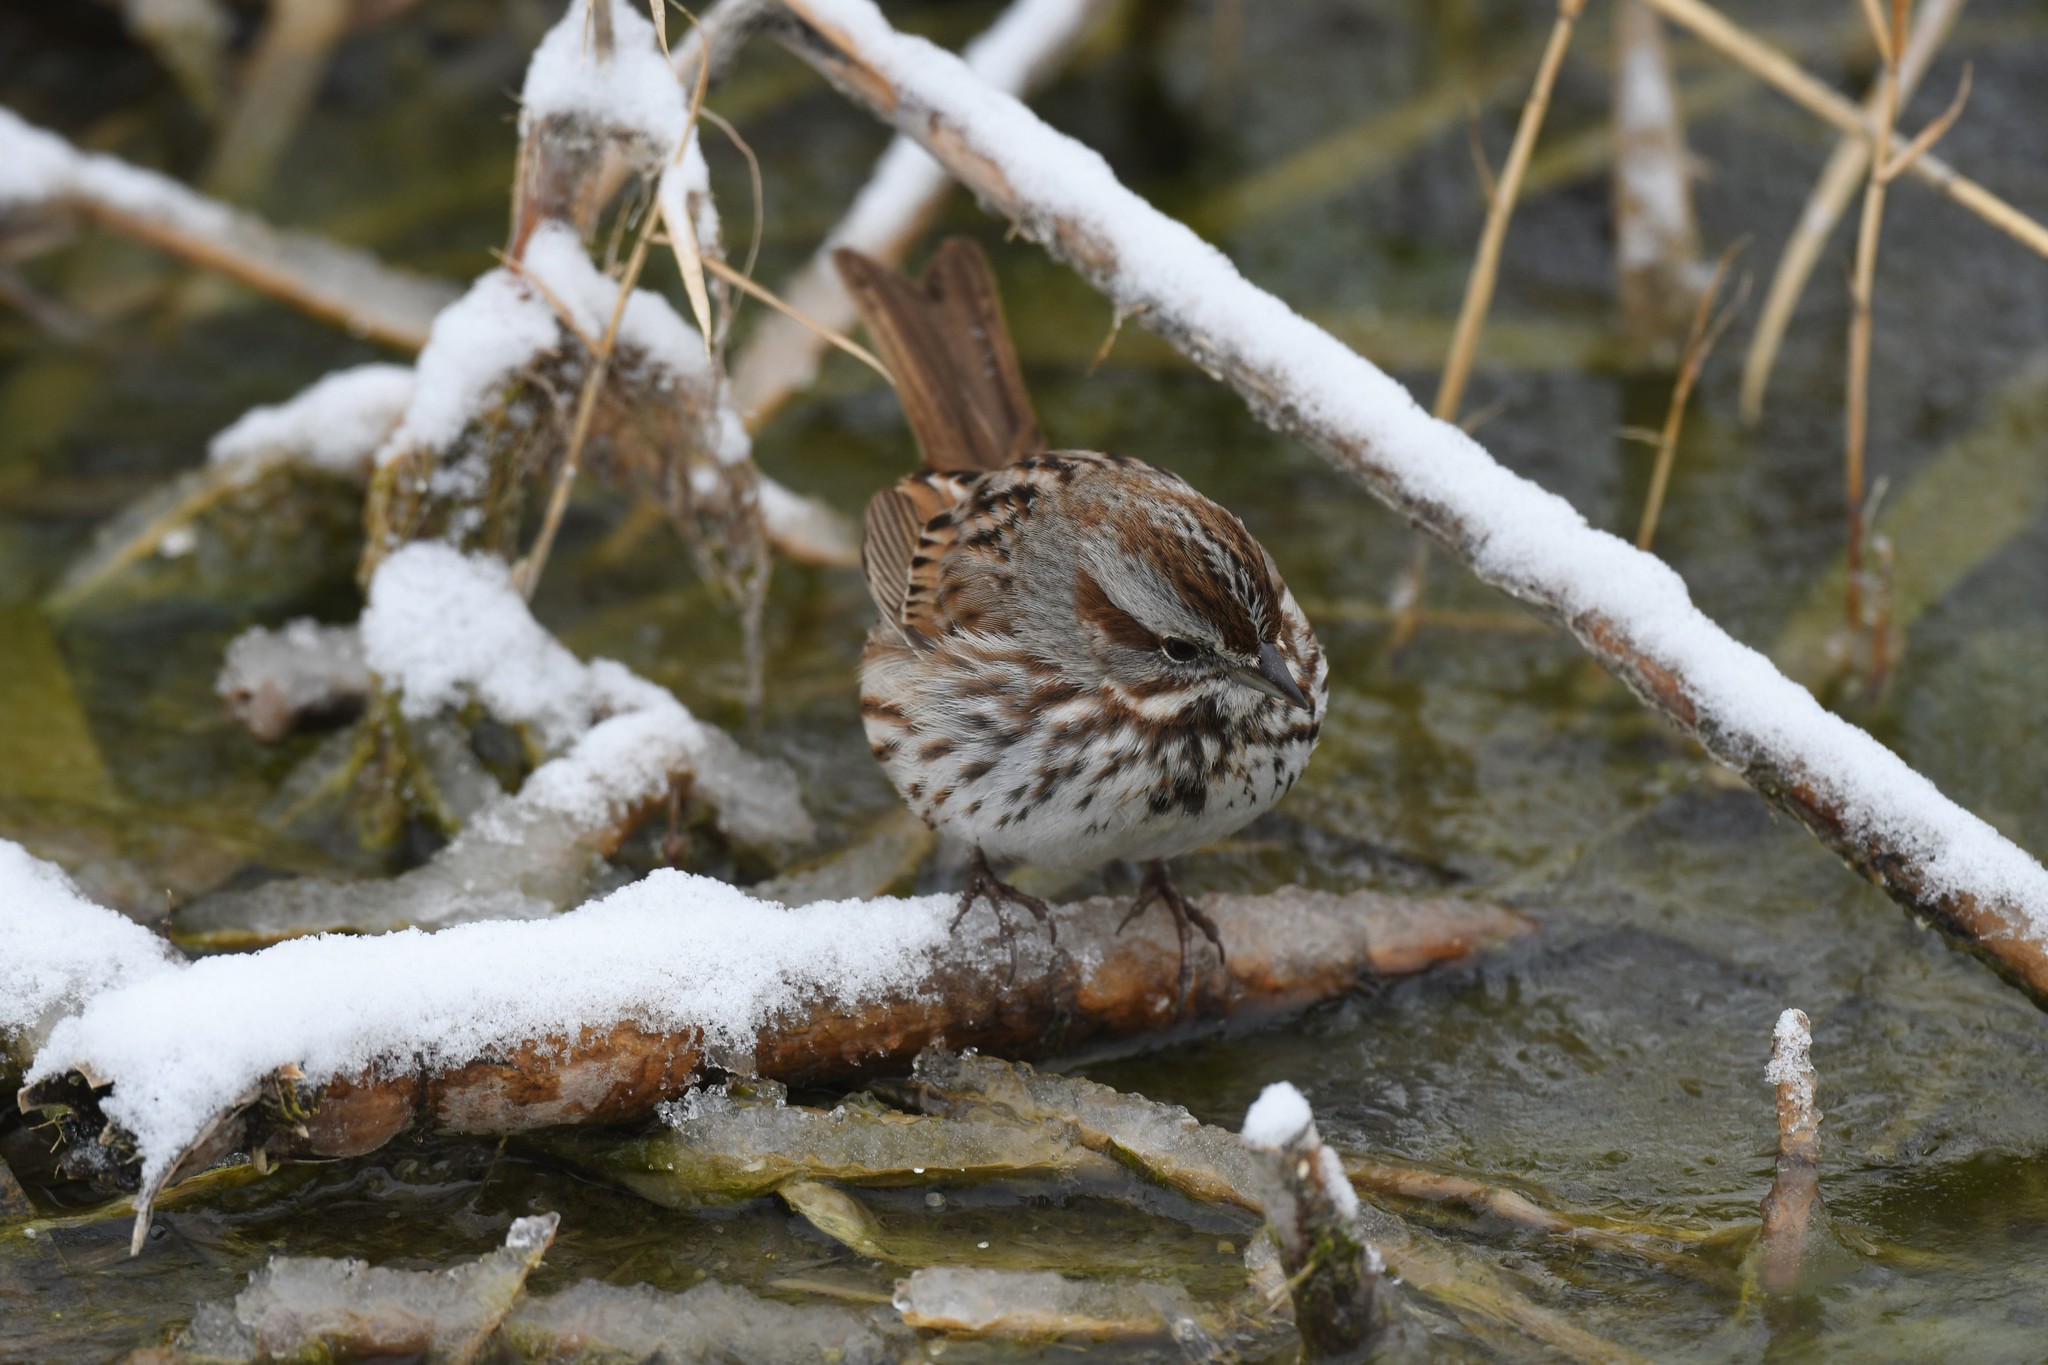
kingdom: Animalia
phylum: Chordata
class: Aves
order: Passeriformes
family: Passerellidae
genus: Melospiza
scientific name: Melospiza melodia
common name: Song sparrow
